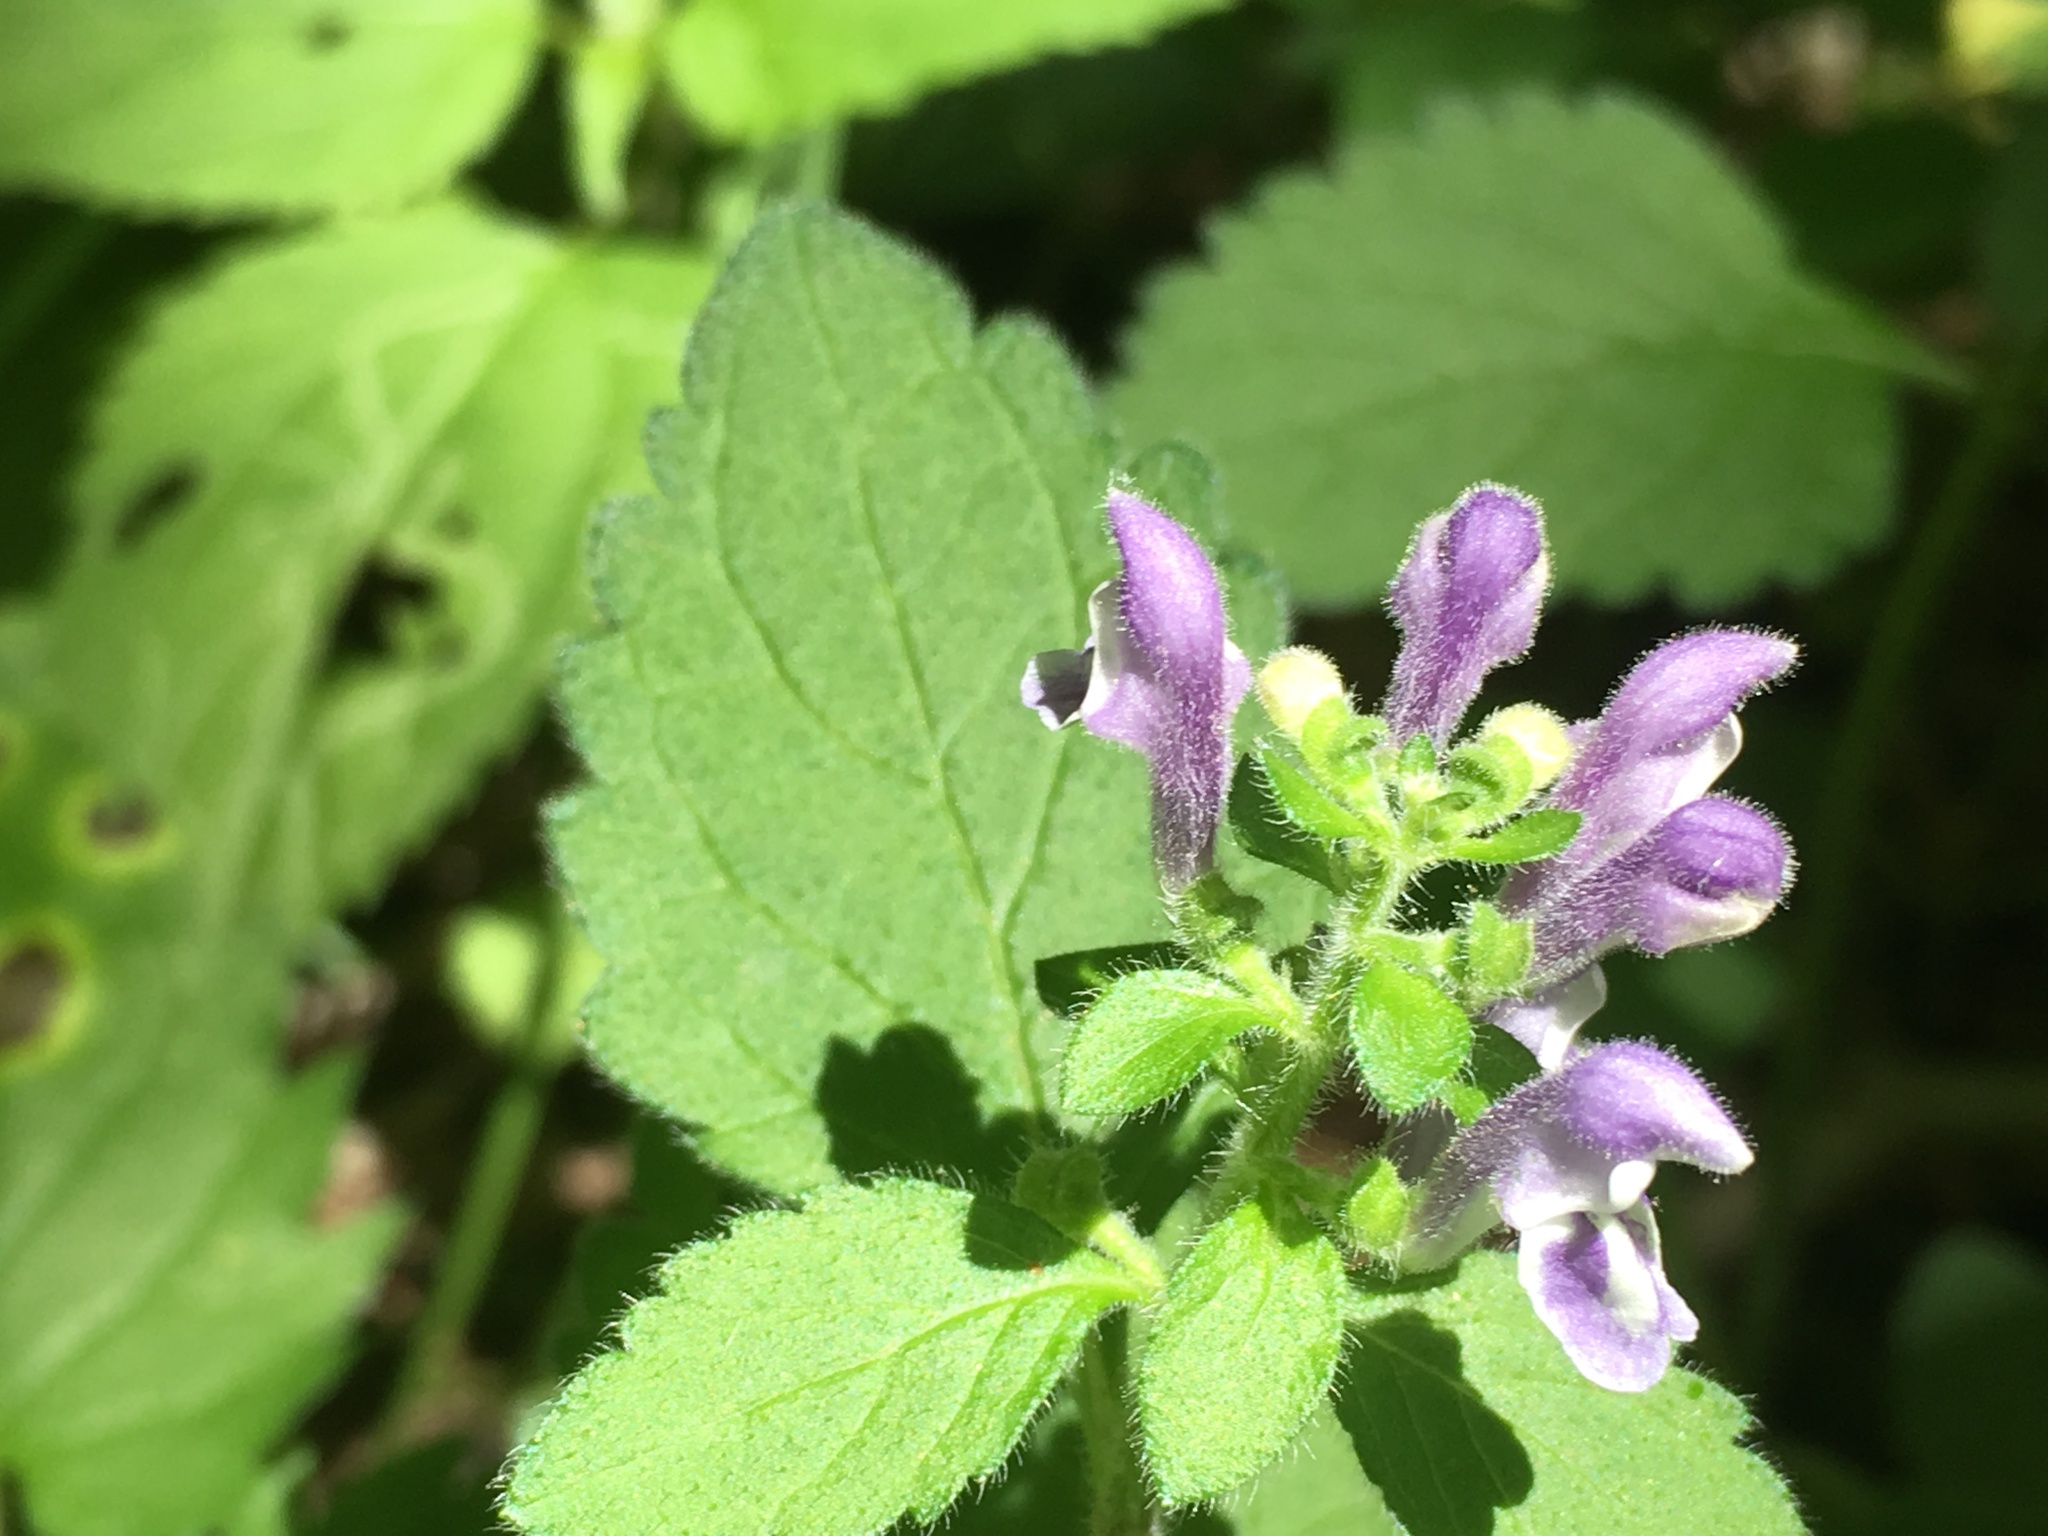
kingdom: Plantae
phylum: Tracheophyta
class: Magnoliopsida
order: Lamiales
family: Lamiaceae
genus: Scutellaria
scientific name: Scutellaria elliptica
